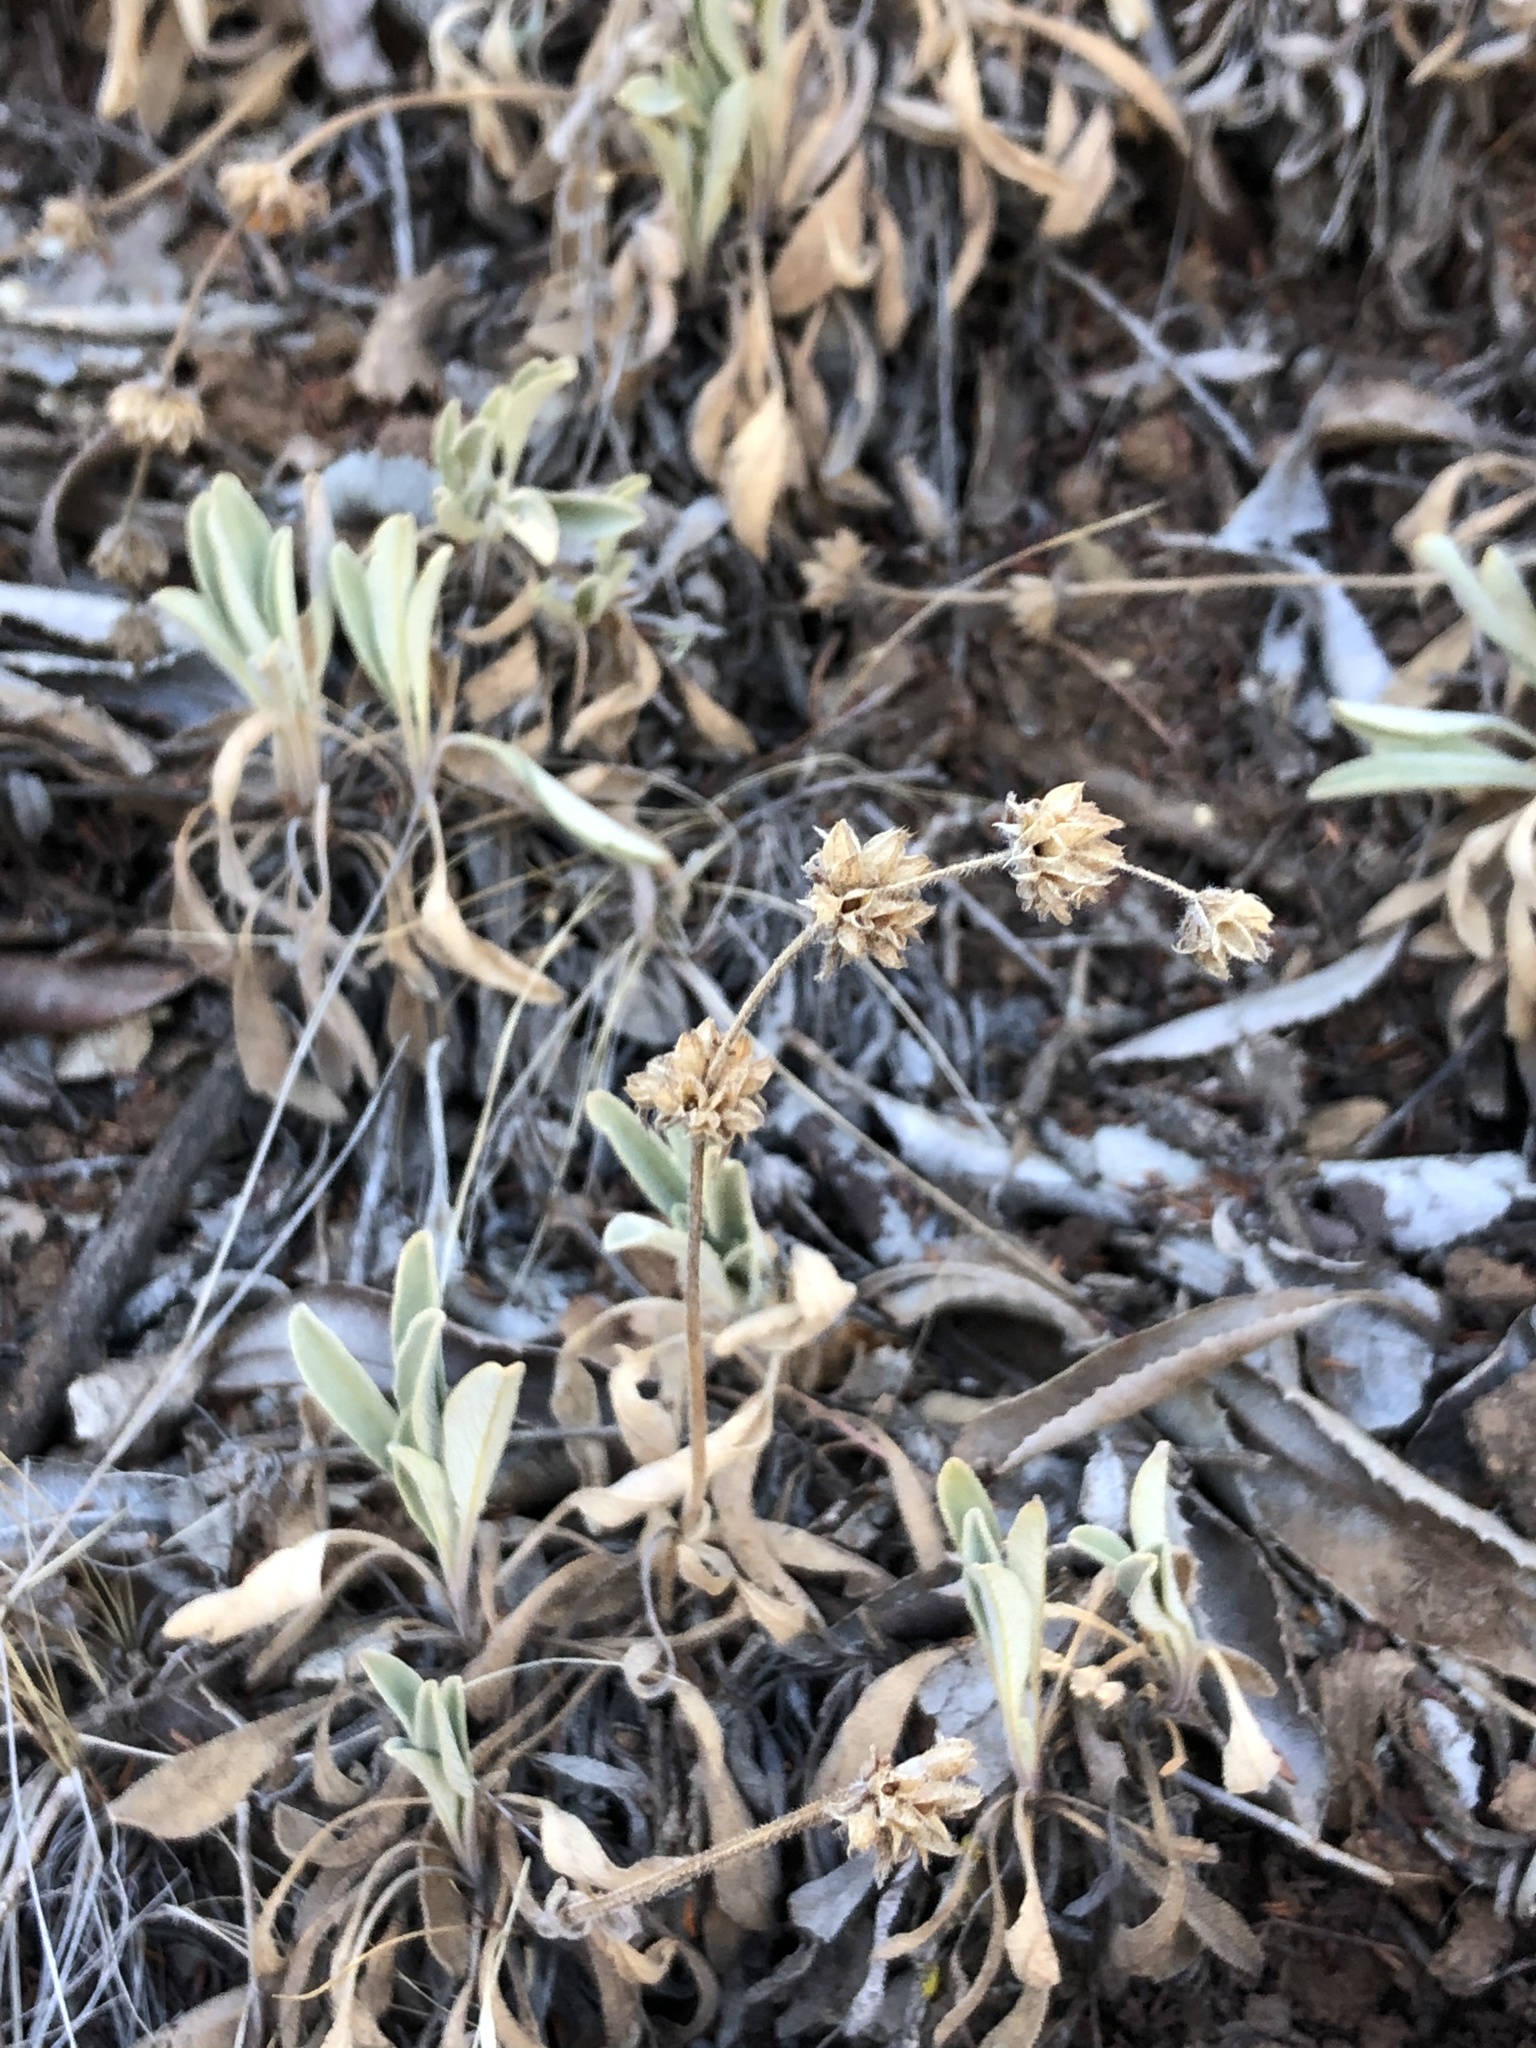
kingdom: Plantae
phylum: Tracheophyta
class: Magnoliopsida
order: Lamiales
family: Lamiaceae
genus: Salvia
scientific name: Salvia sonomensis
